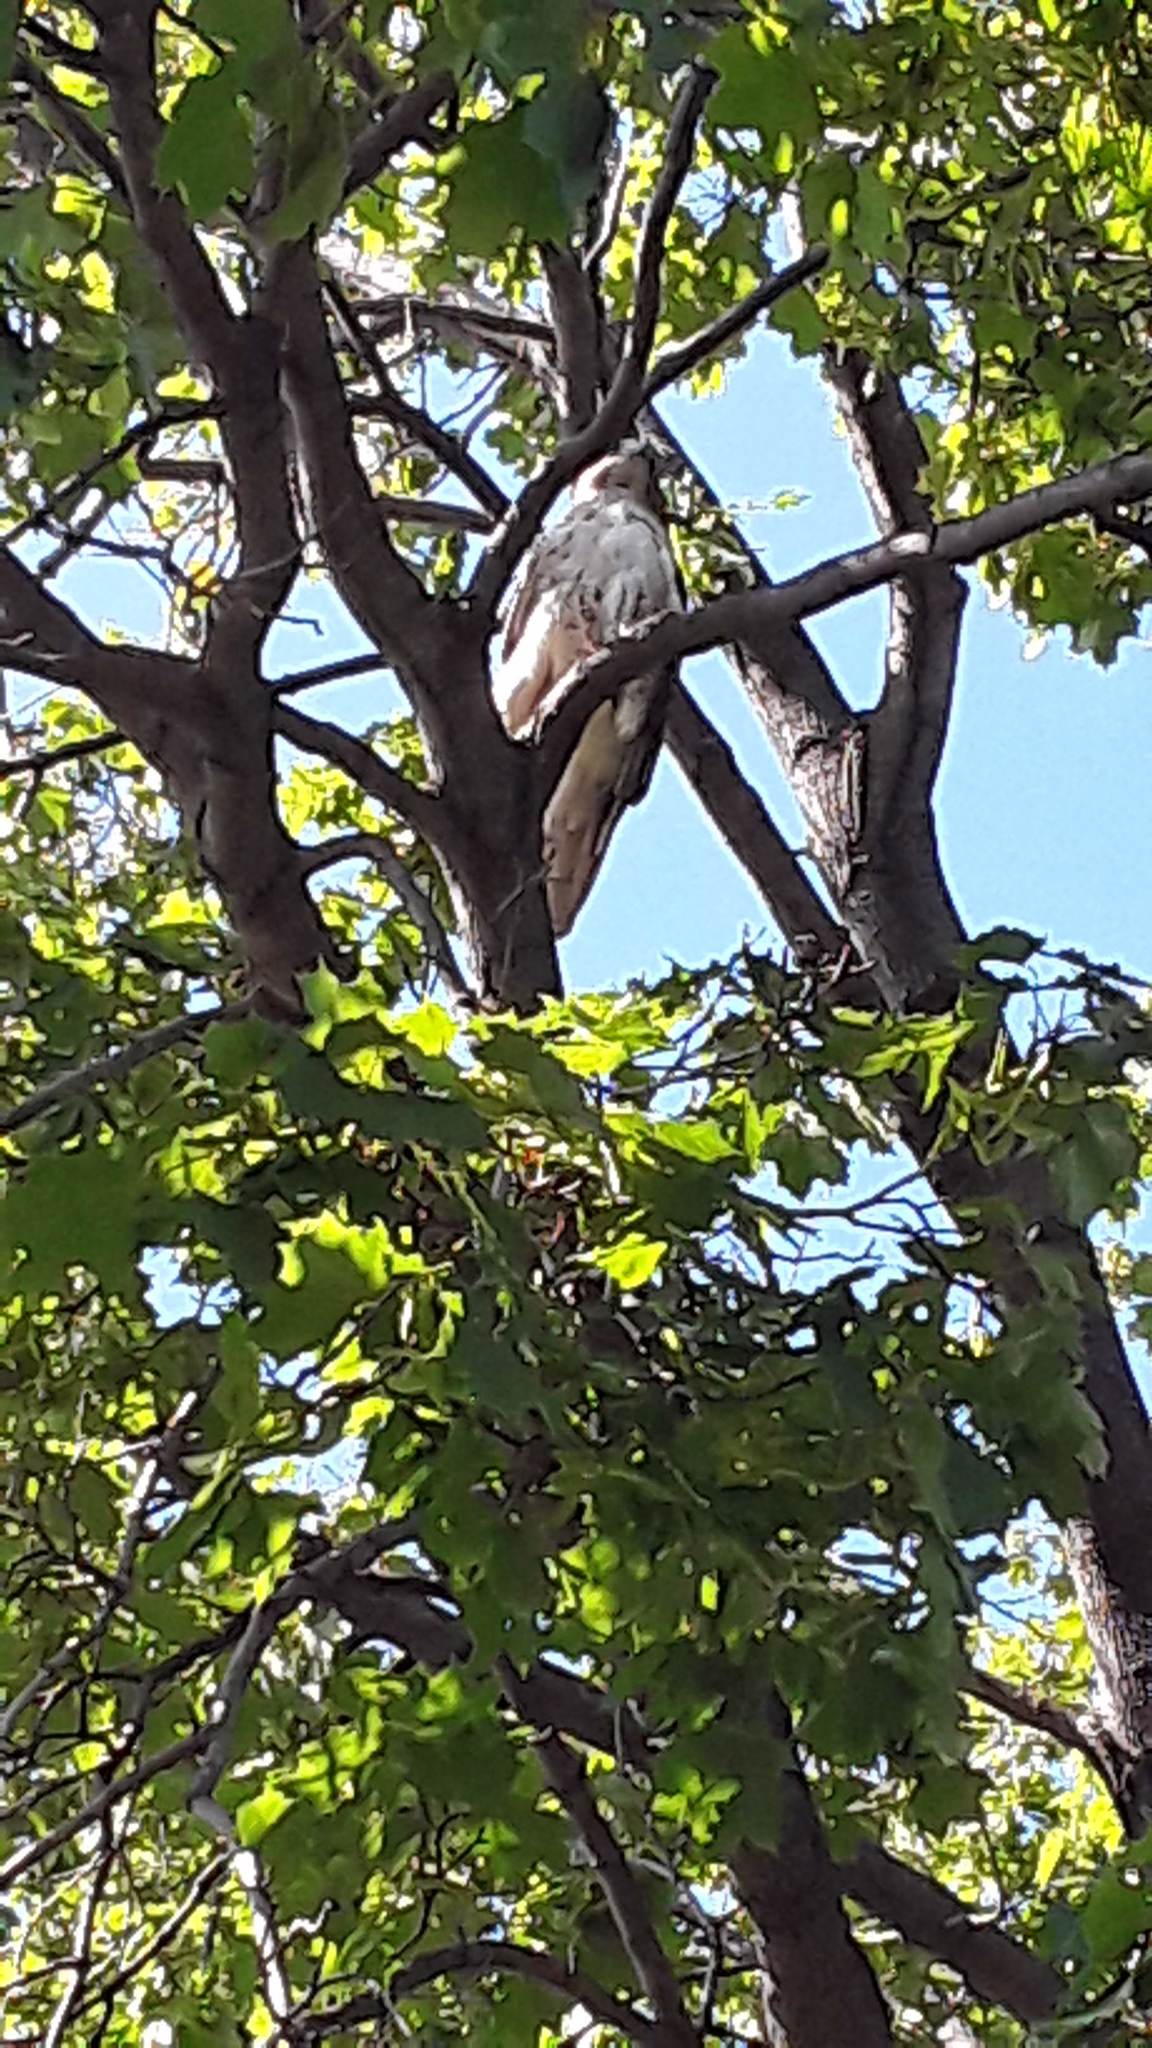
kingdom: Animalia
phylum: Chordata
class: Aves
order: Accipitriformes
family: Accipitridae
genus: Buteo
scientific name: Buteo jamaicensis
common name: Red-tailed hawk
